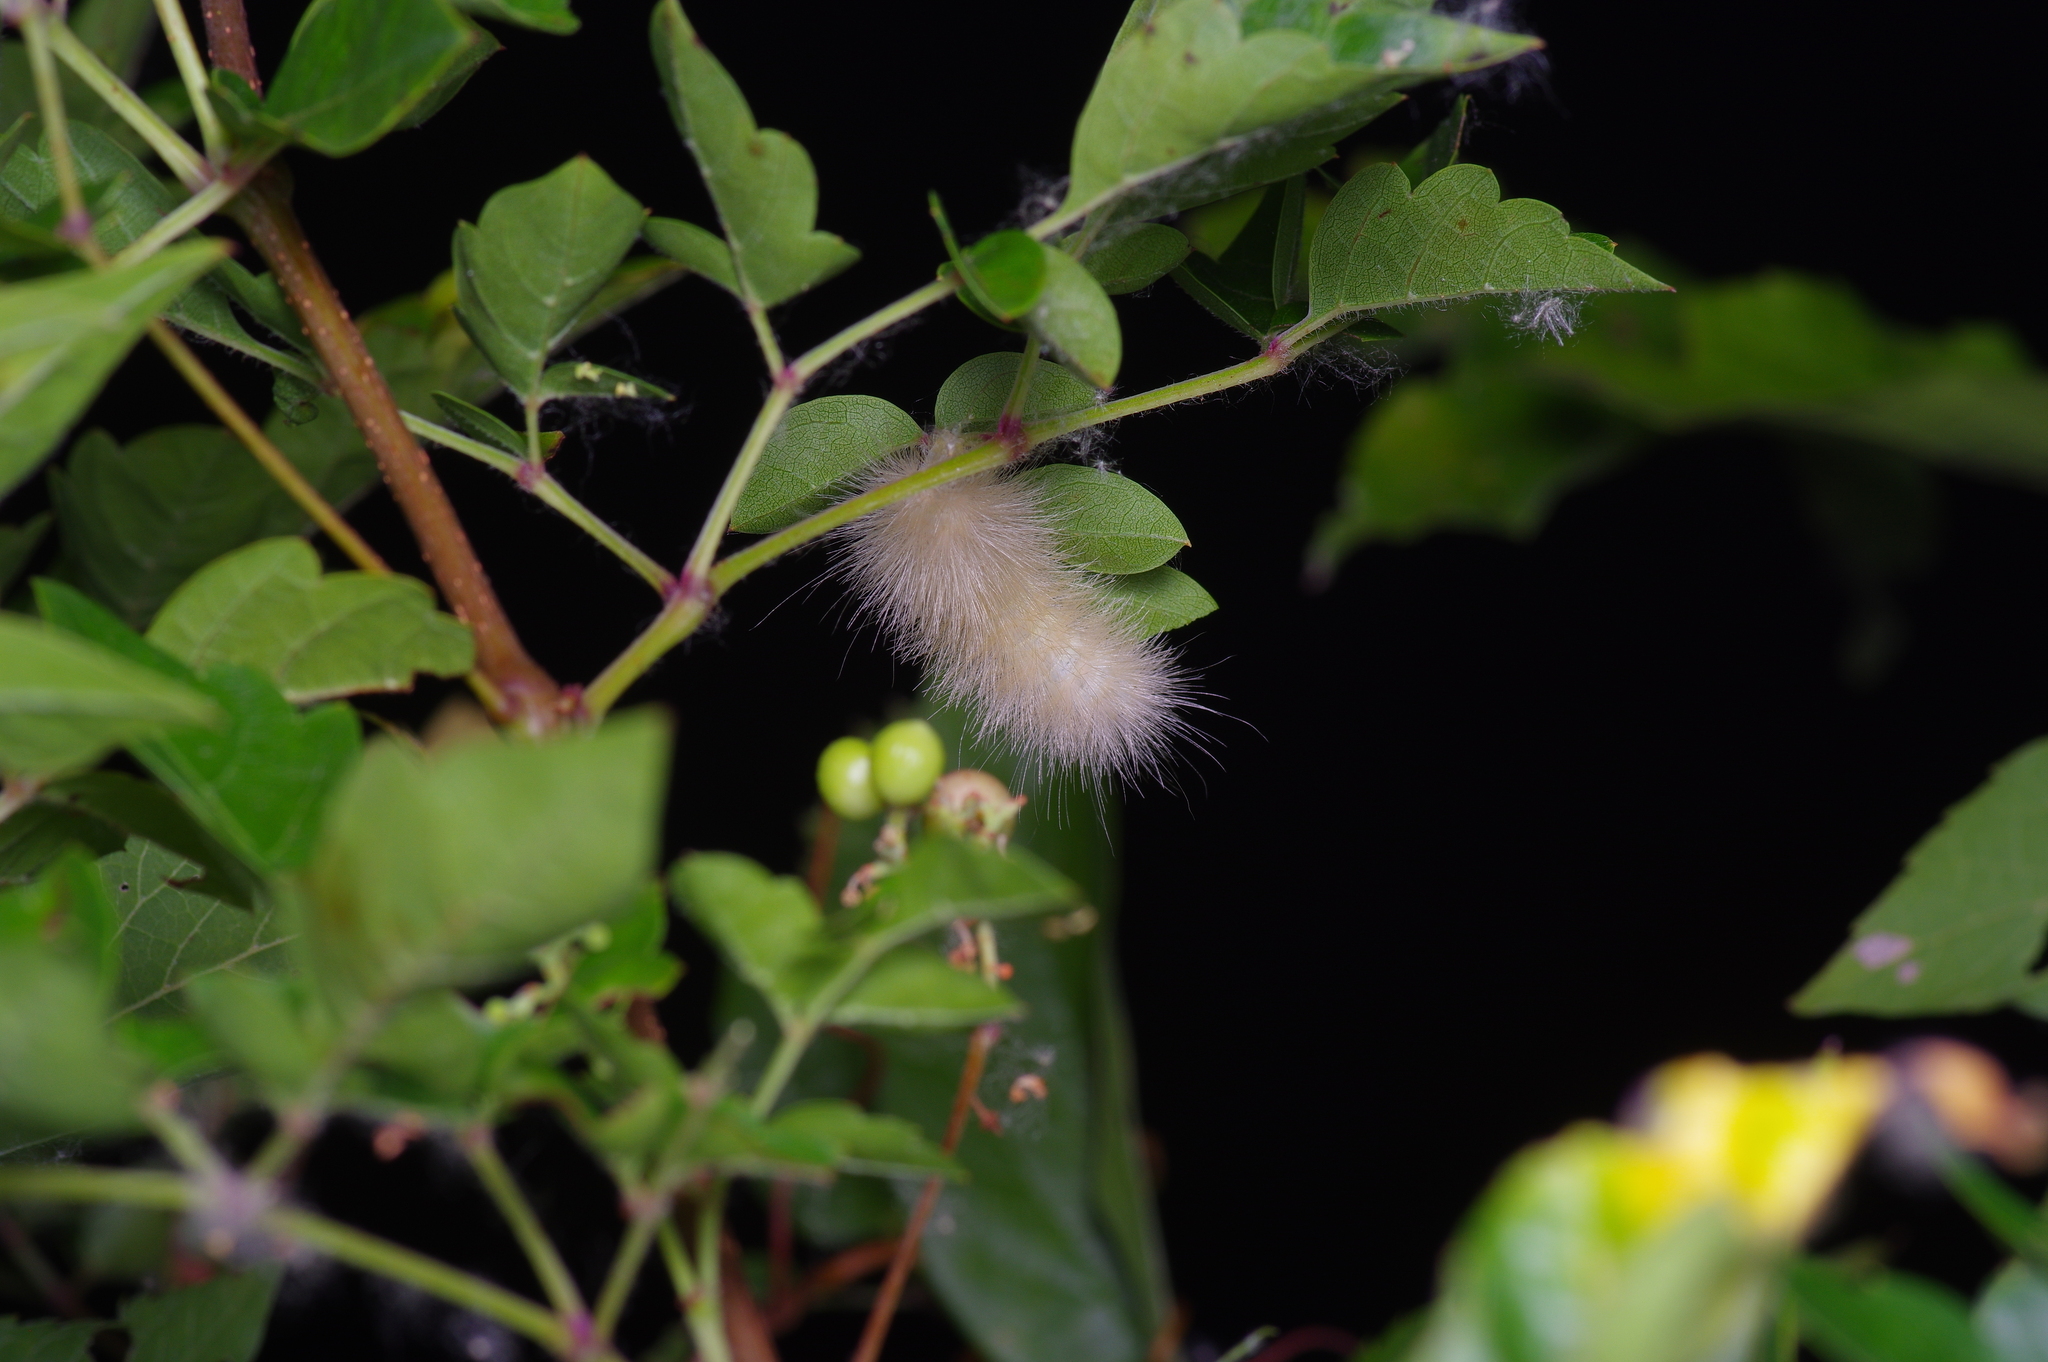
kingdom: Animalia
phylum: Arthropoda
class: Insecta
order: Lepidoptera
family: Erebidae
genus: Spilosoma
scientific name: Spilosoma virginica
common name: Virginia tiger moth
